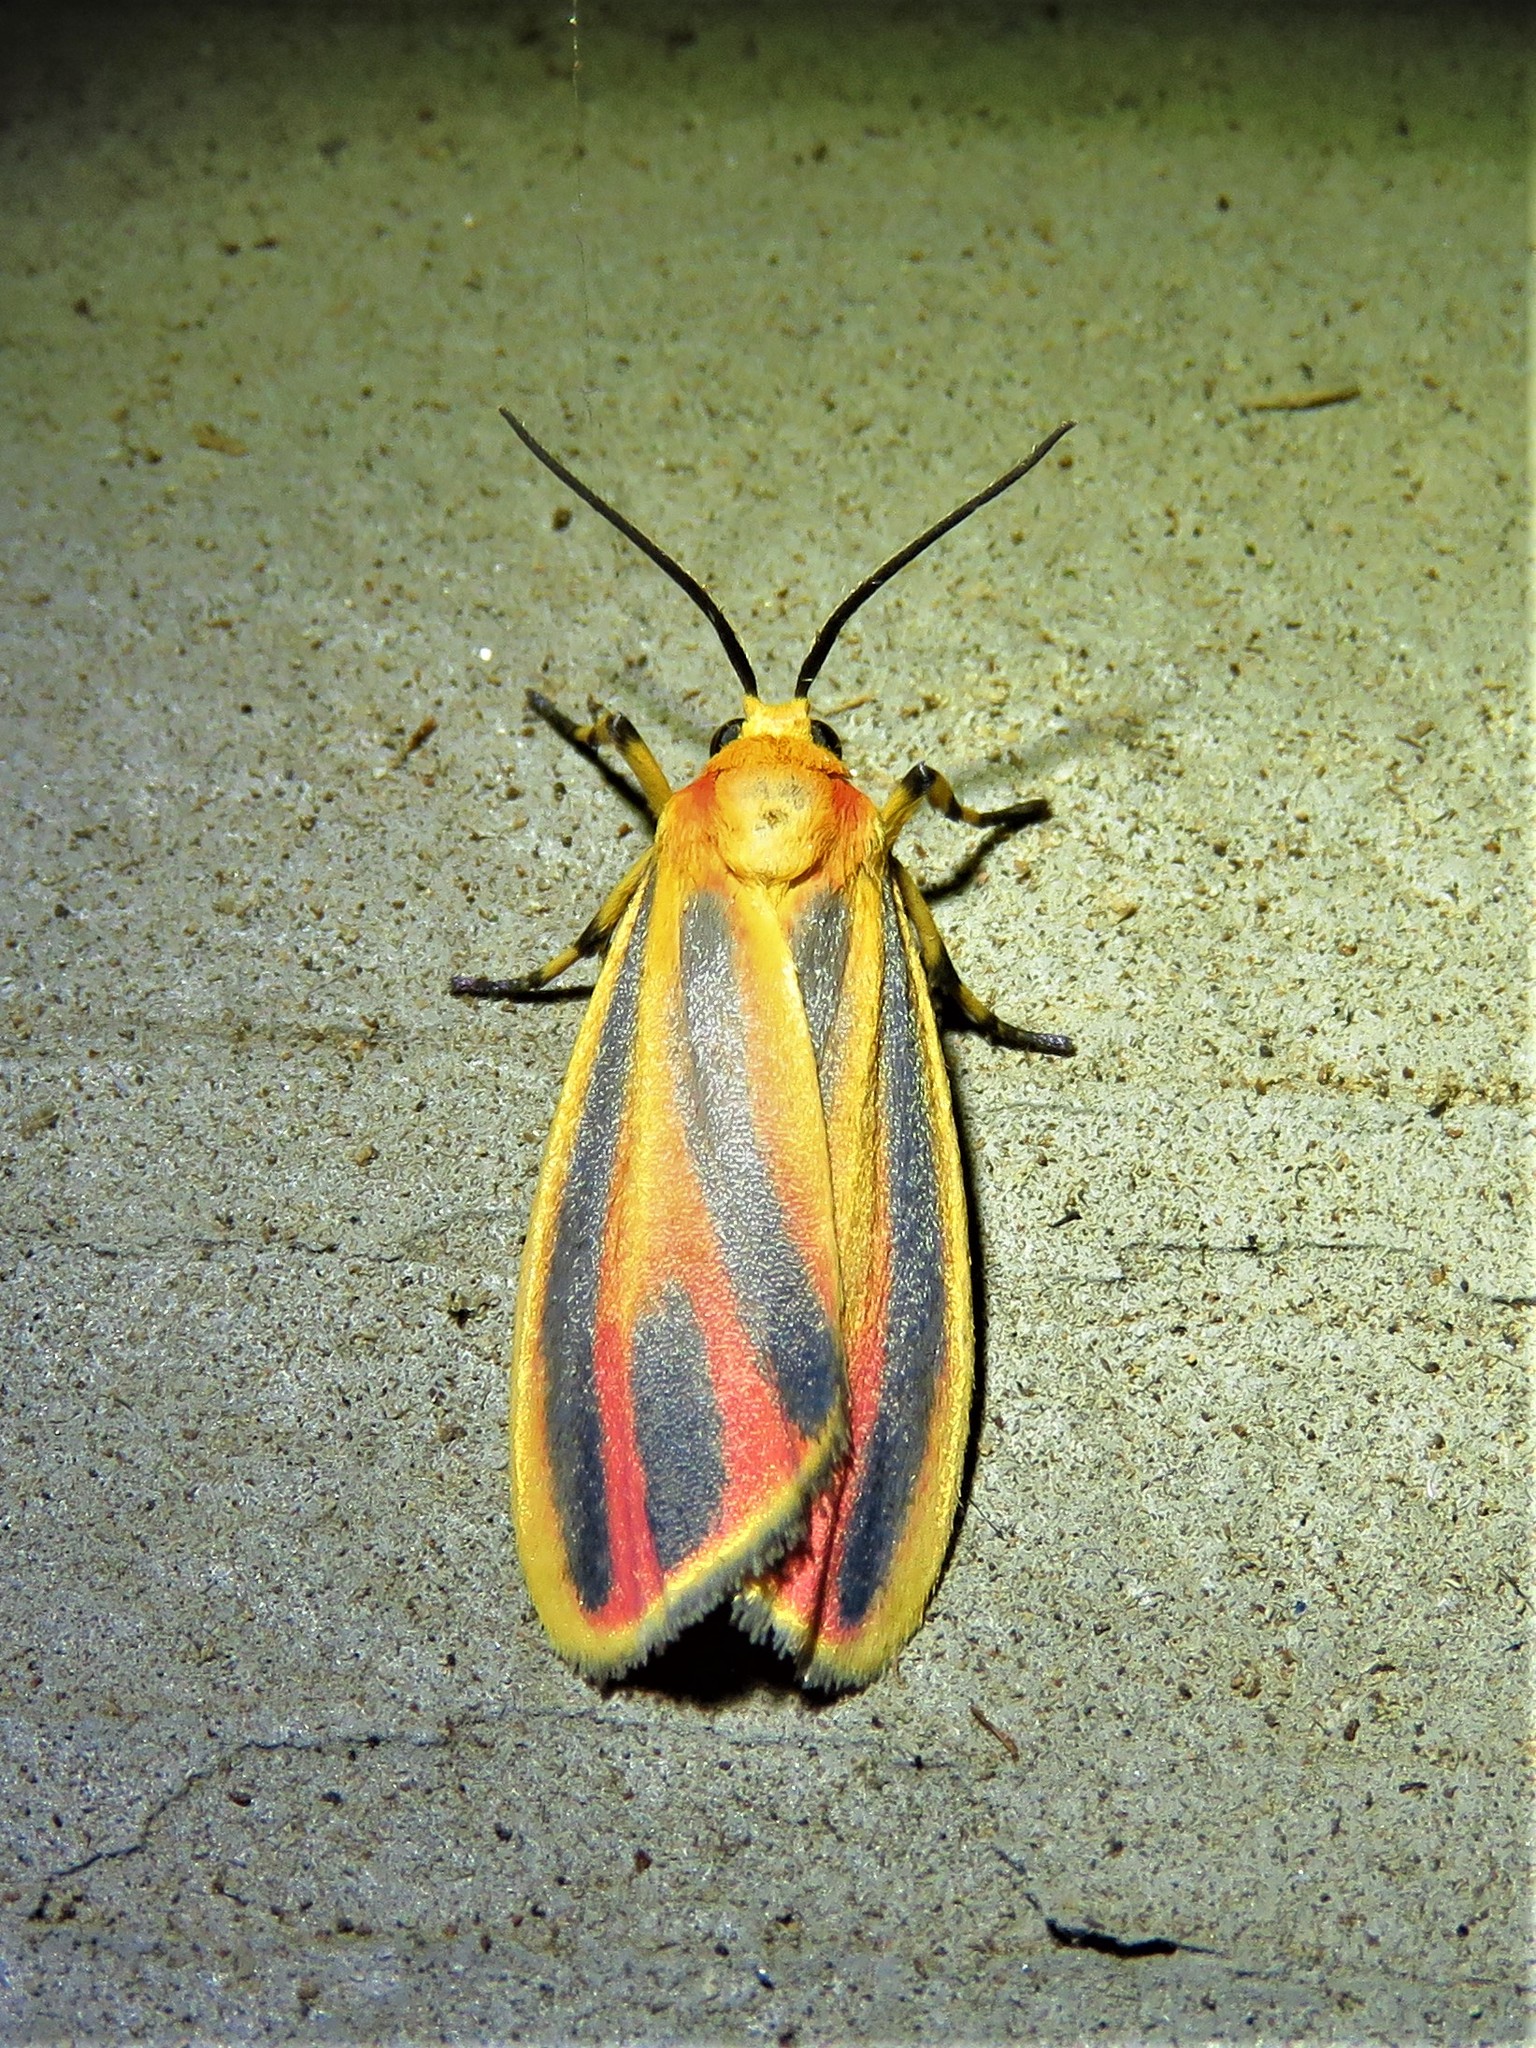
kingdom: Animalia
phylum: Arthropoda
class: Insecta
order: Lepidoptera
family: Erebidae
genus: Hypoprepia
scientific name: Hypoprepia fucosa
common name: Painted lichen moth
